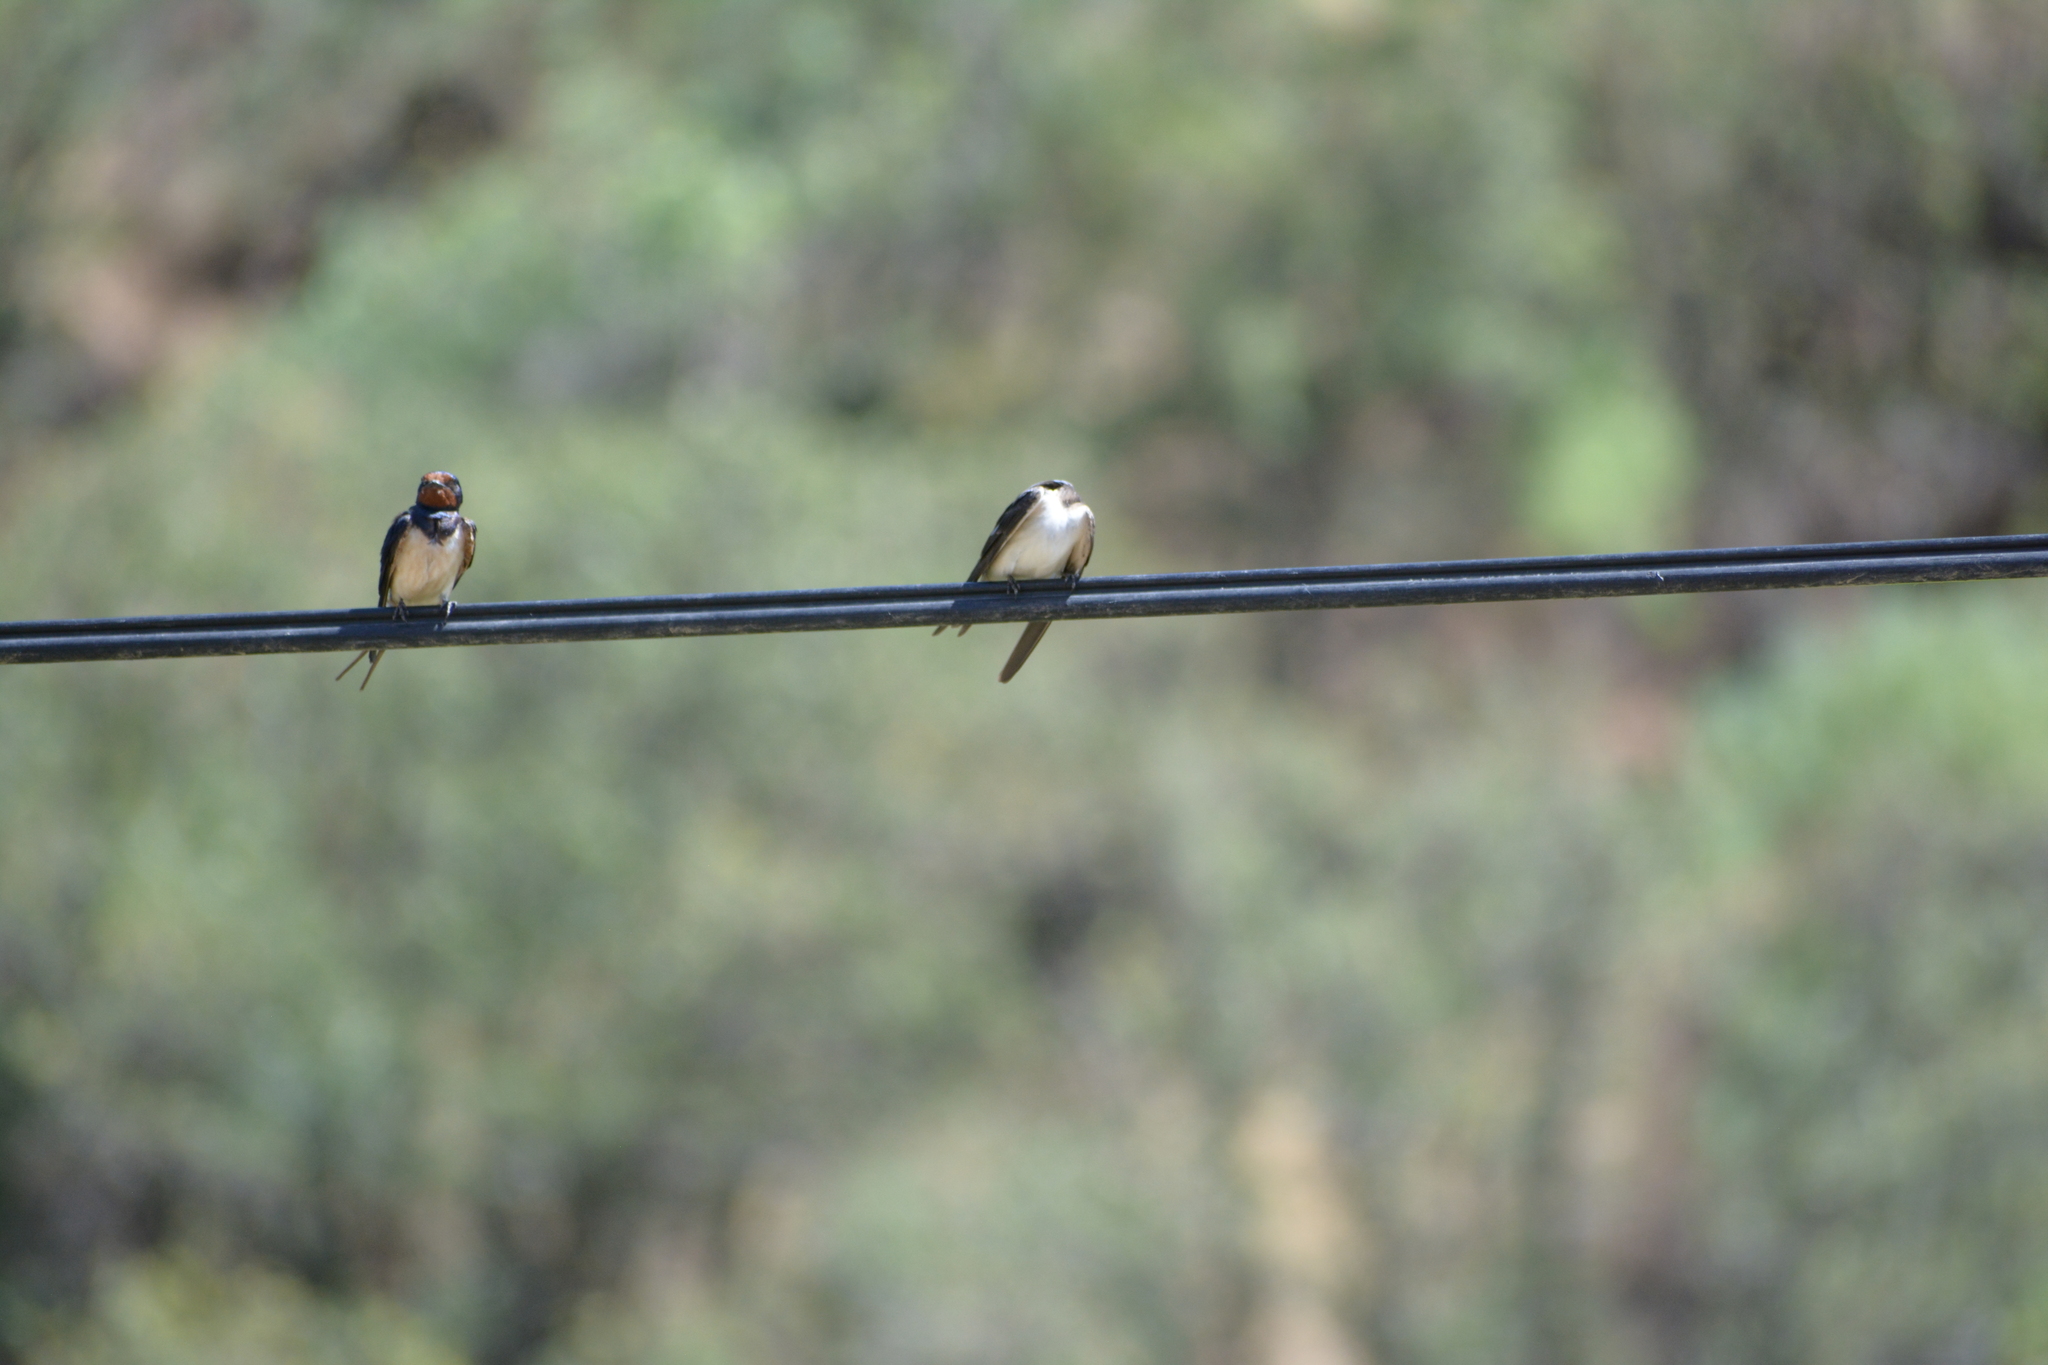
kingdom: Animalia
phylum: Chordata
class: Aves
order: Passeriformes
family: Hirundinidae
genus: Hirundo
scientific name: Hirundo rustica
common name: Barn swallow
